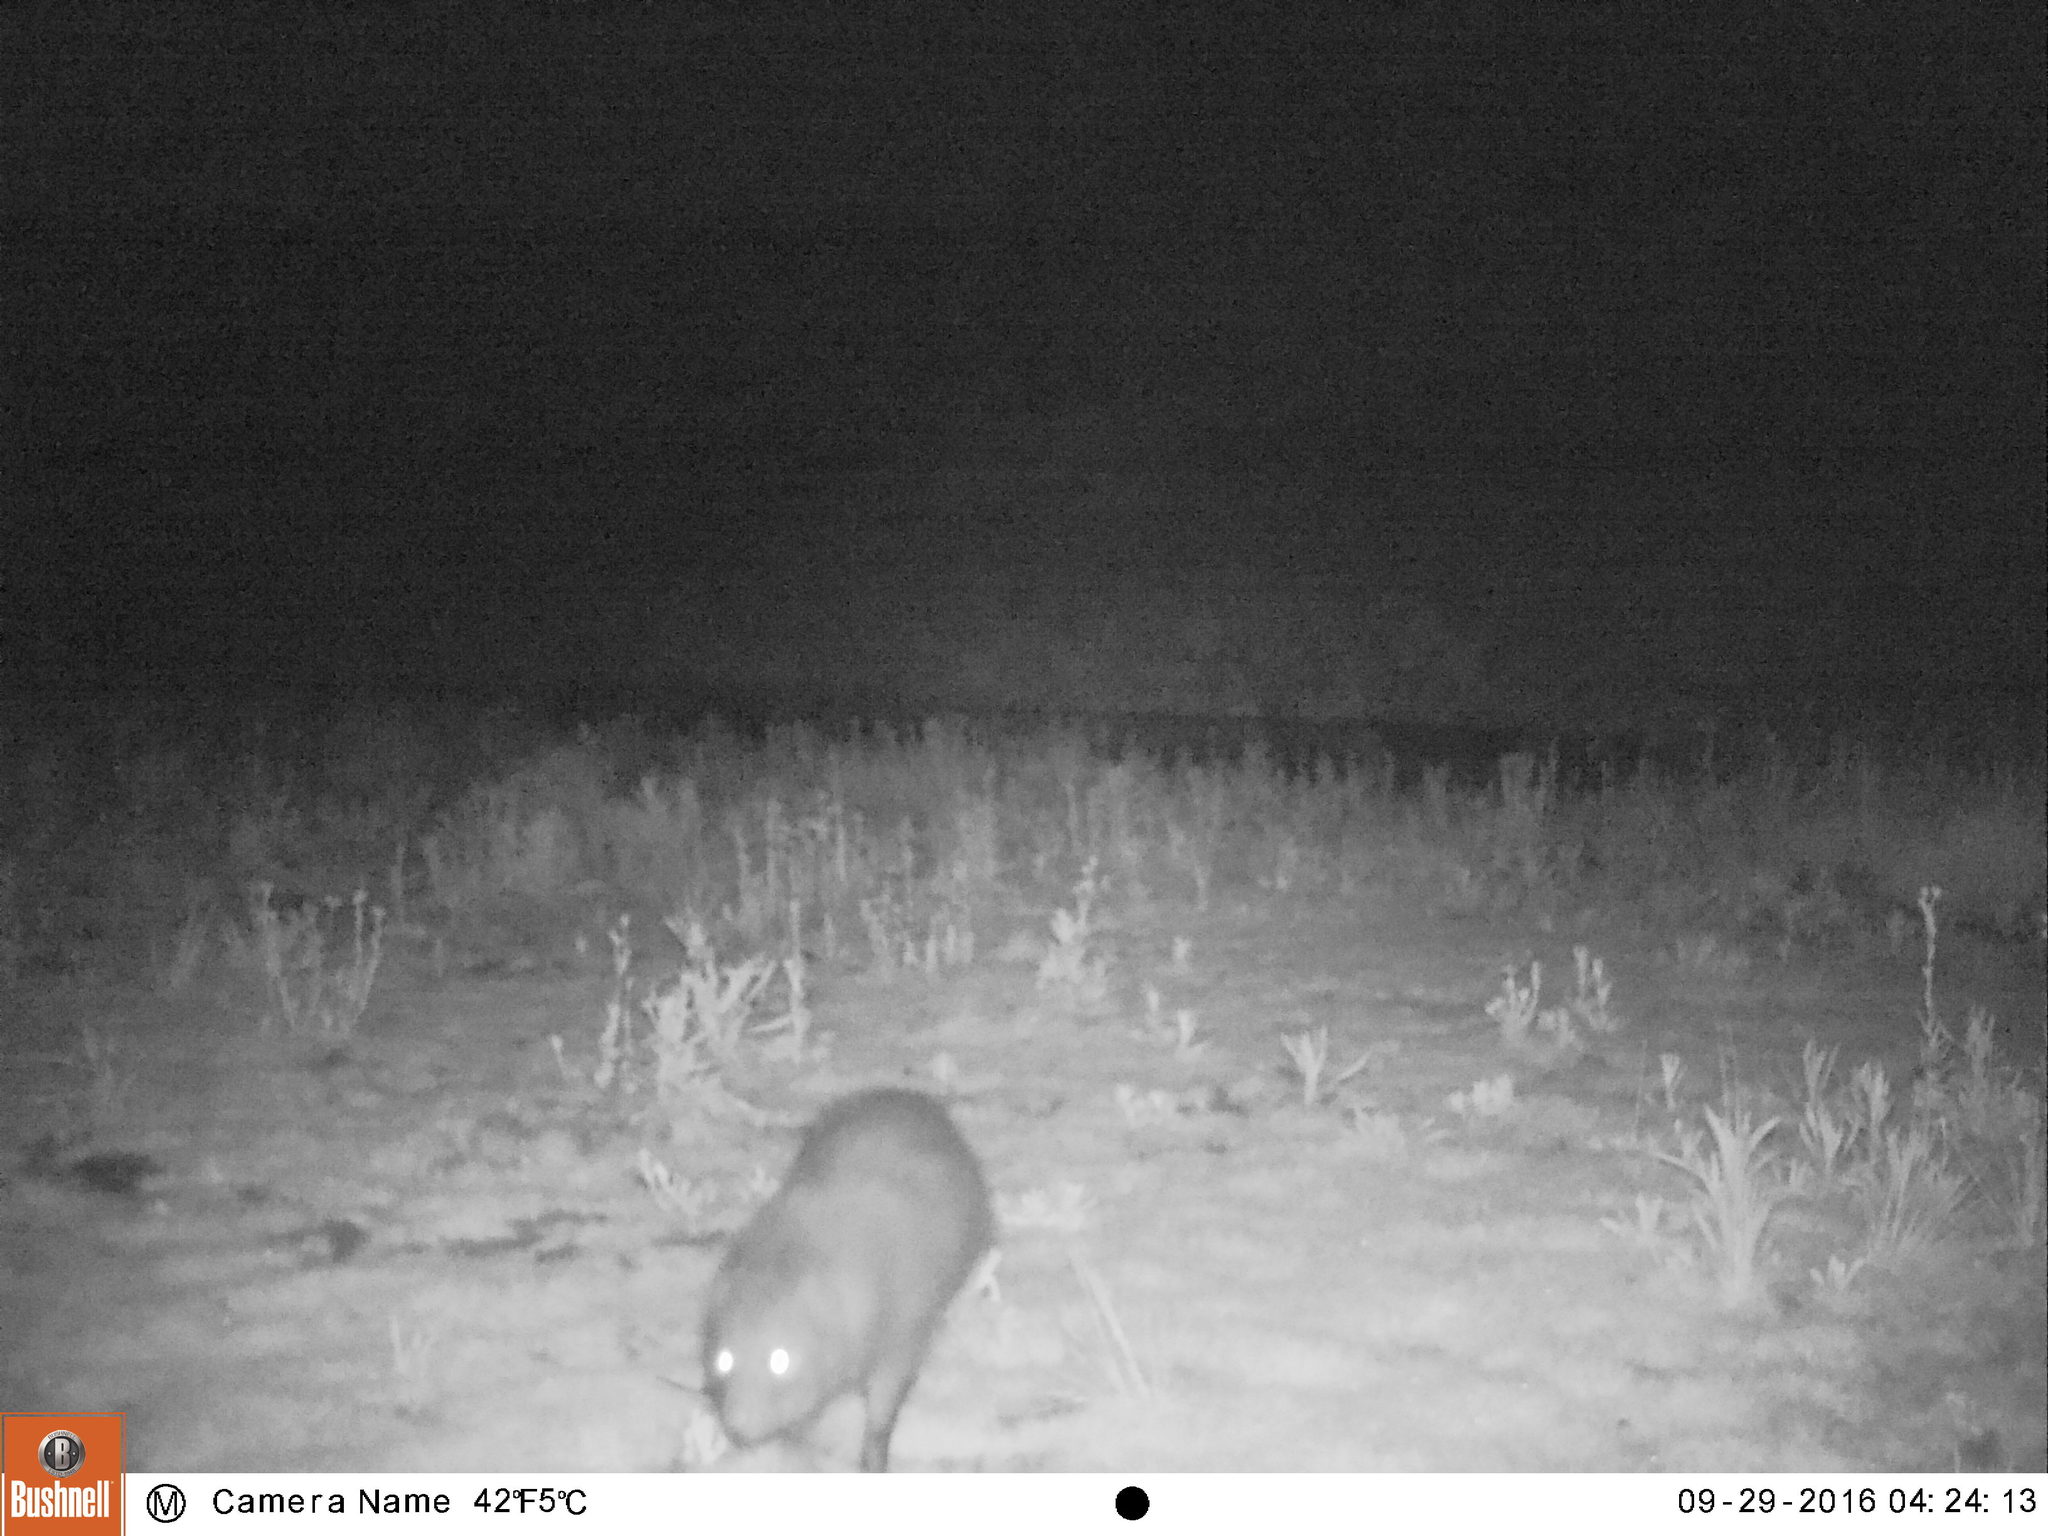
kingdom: Animalia
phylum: Chordata
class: Mammalia
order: Carnivora
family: Herpestidae
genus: Atilax
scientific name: Atilax paludinosus
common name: Marsh mongoose
